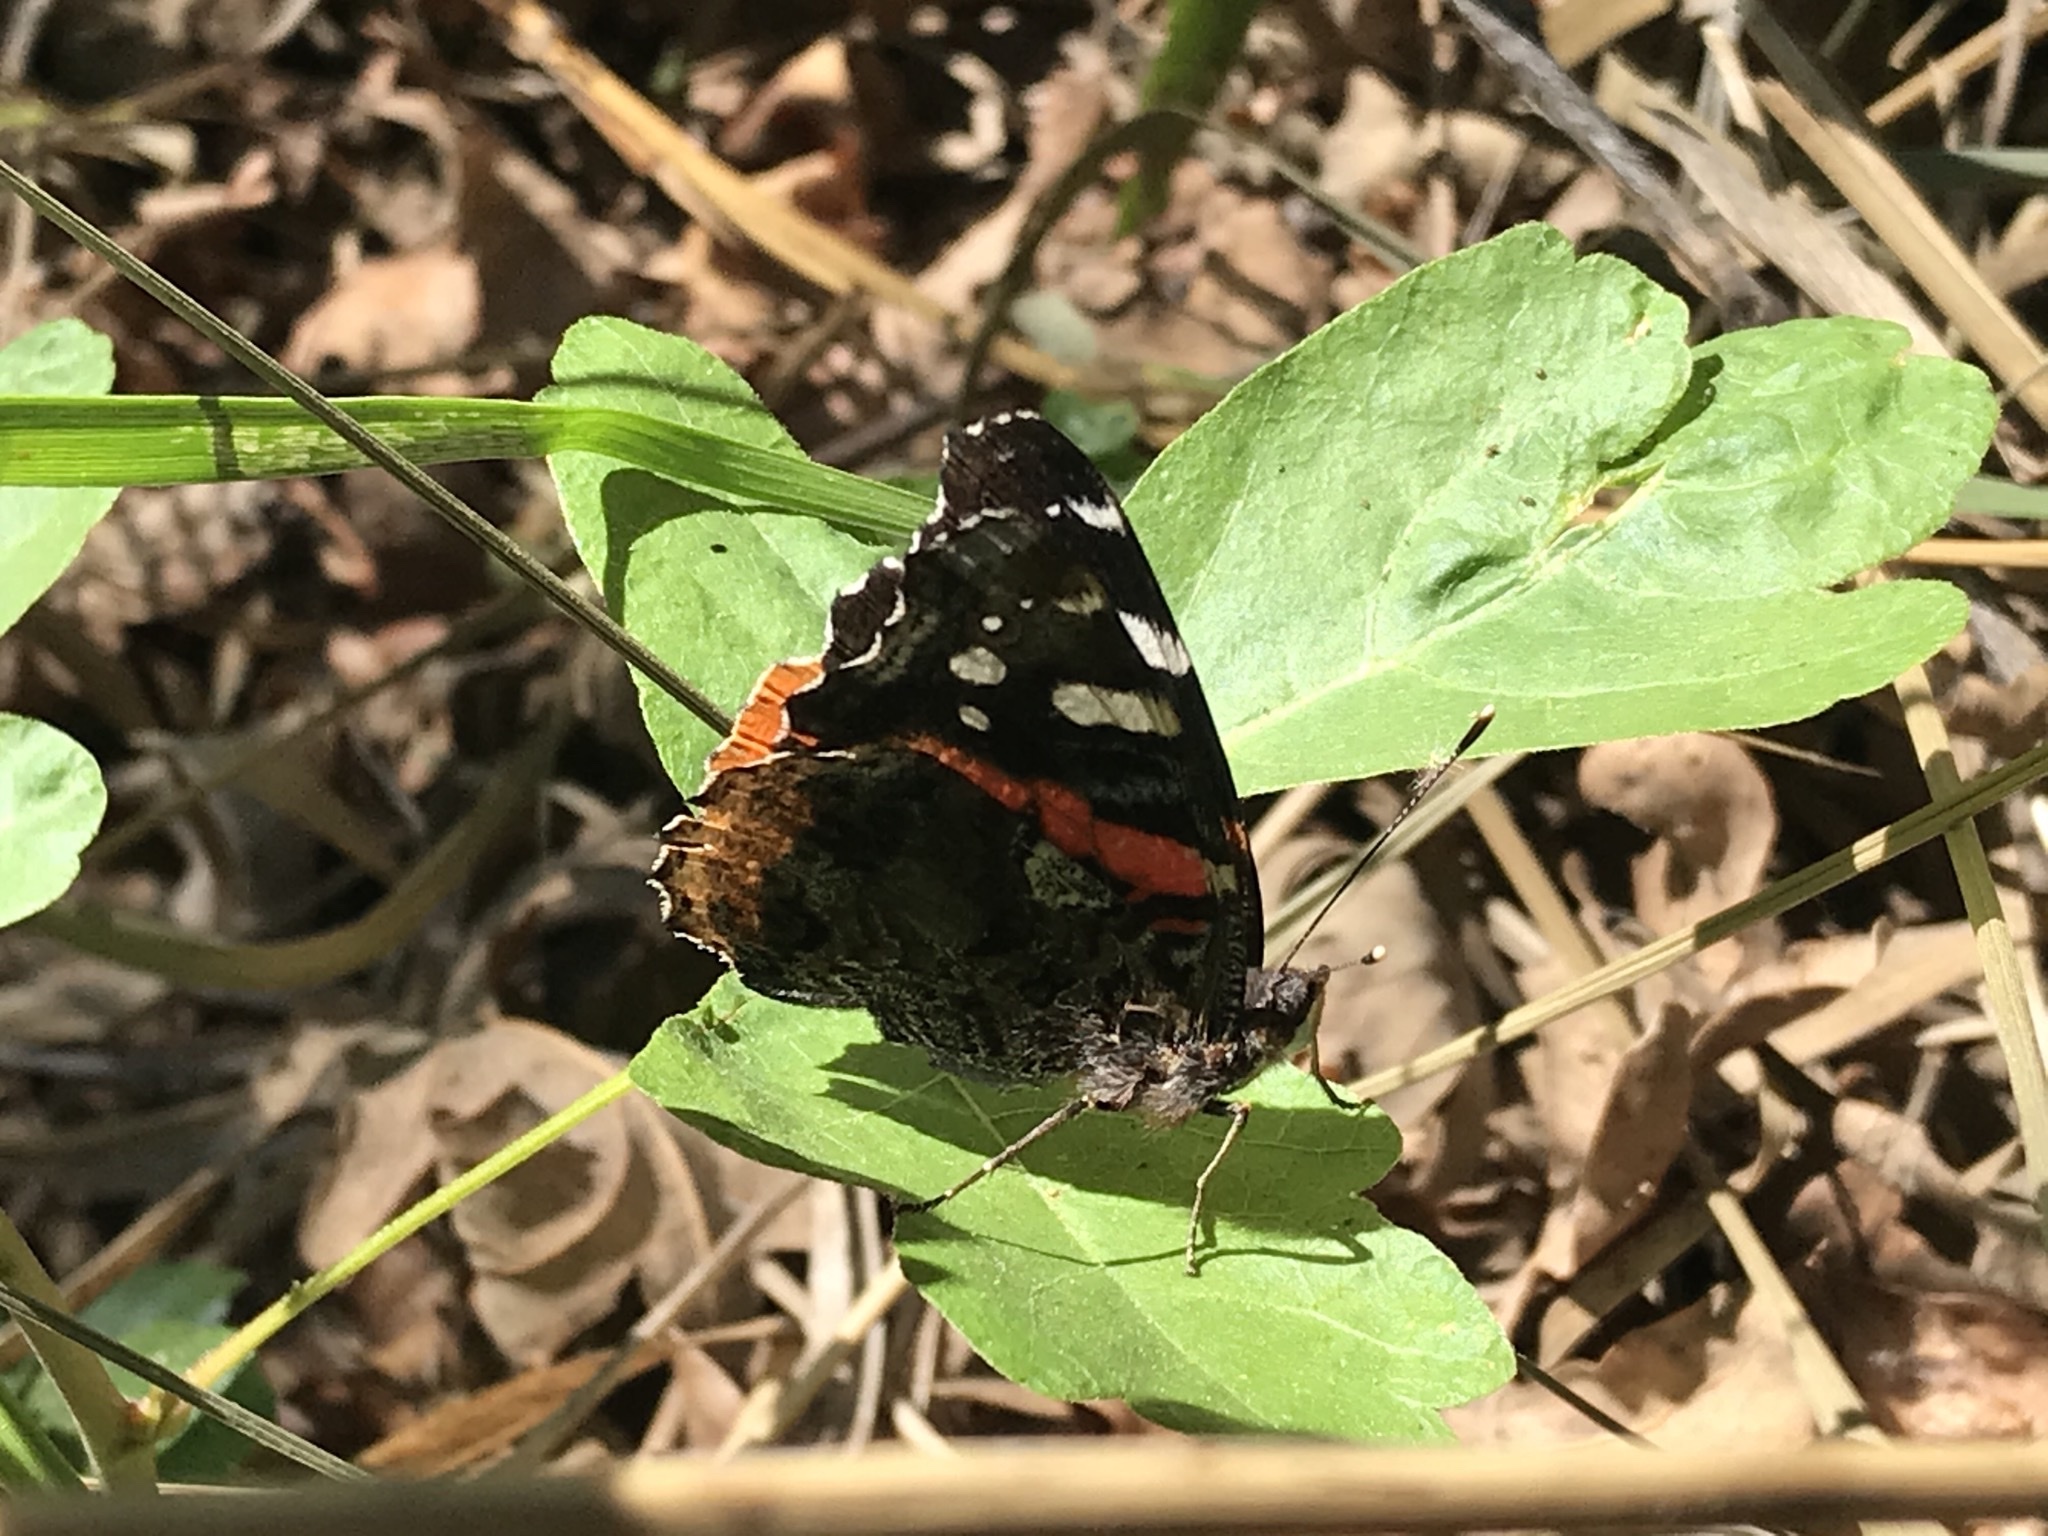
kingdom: Animalia
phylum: Arthropoda
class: Insecta
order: Lepidoptera
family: Nymphalidae
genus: Vanessa
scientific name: Vanessa atalanta
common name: Red admiral
